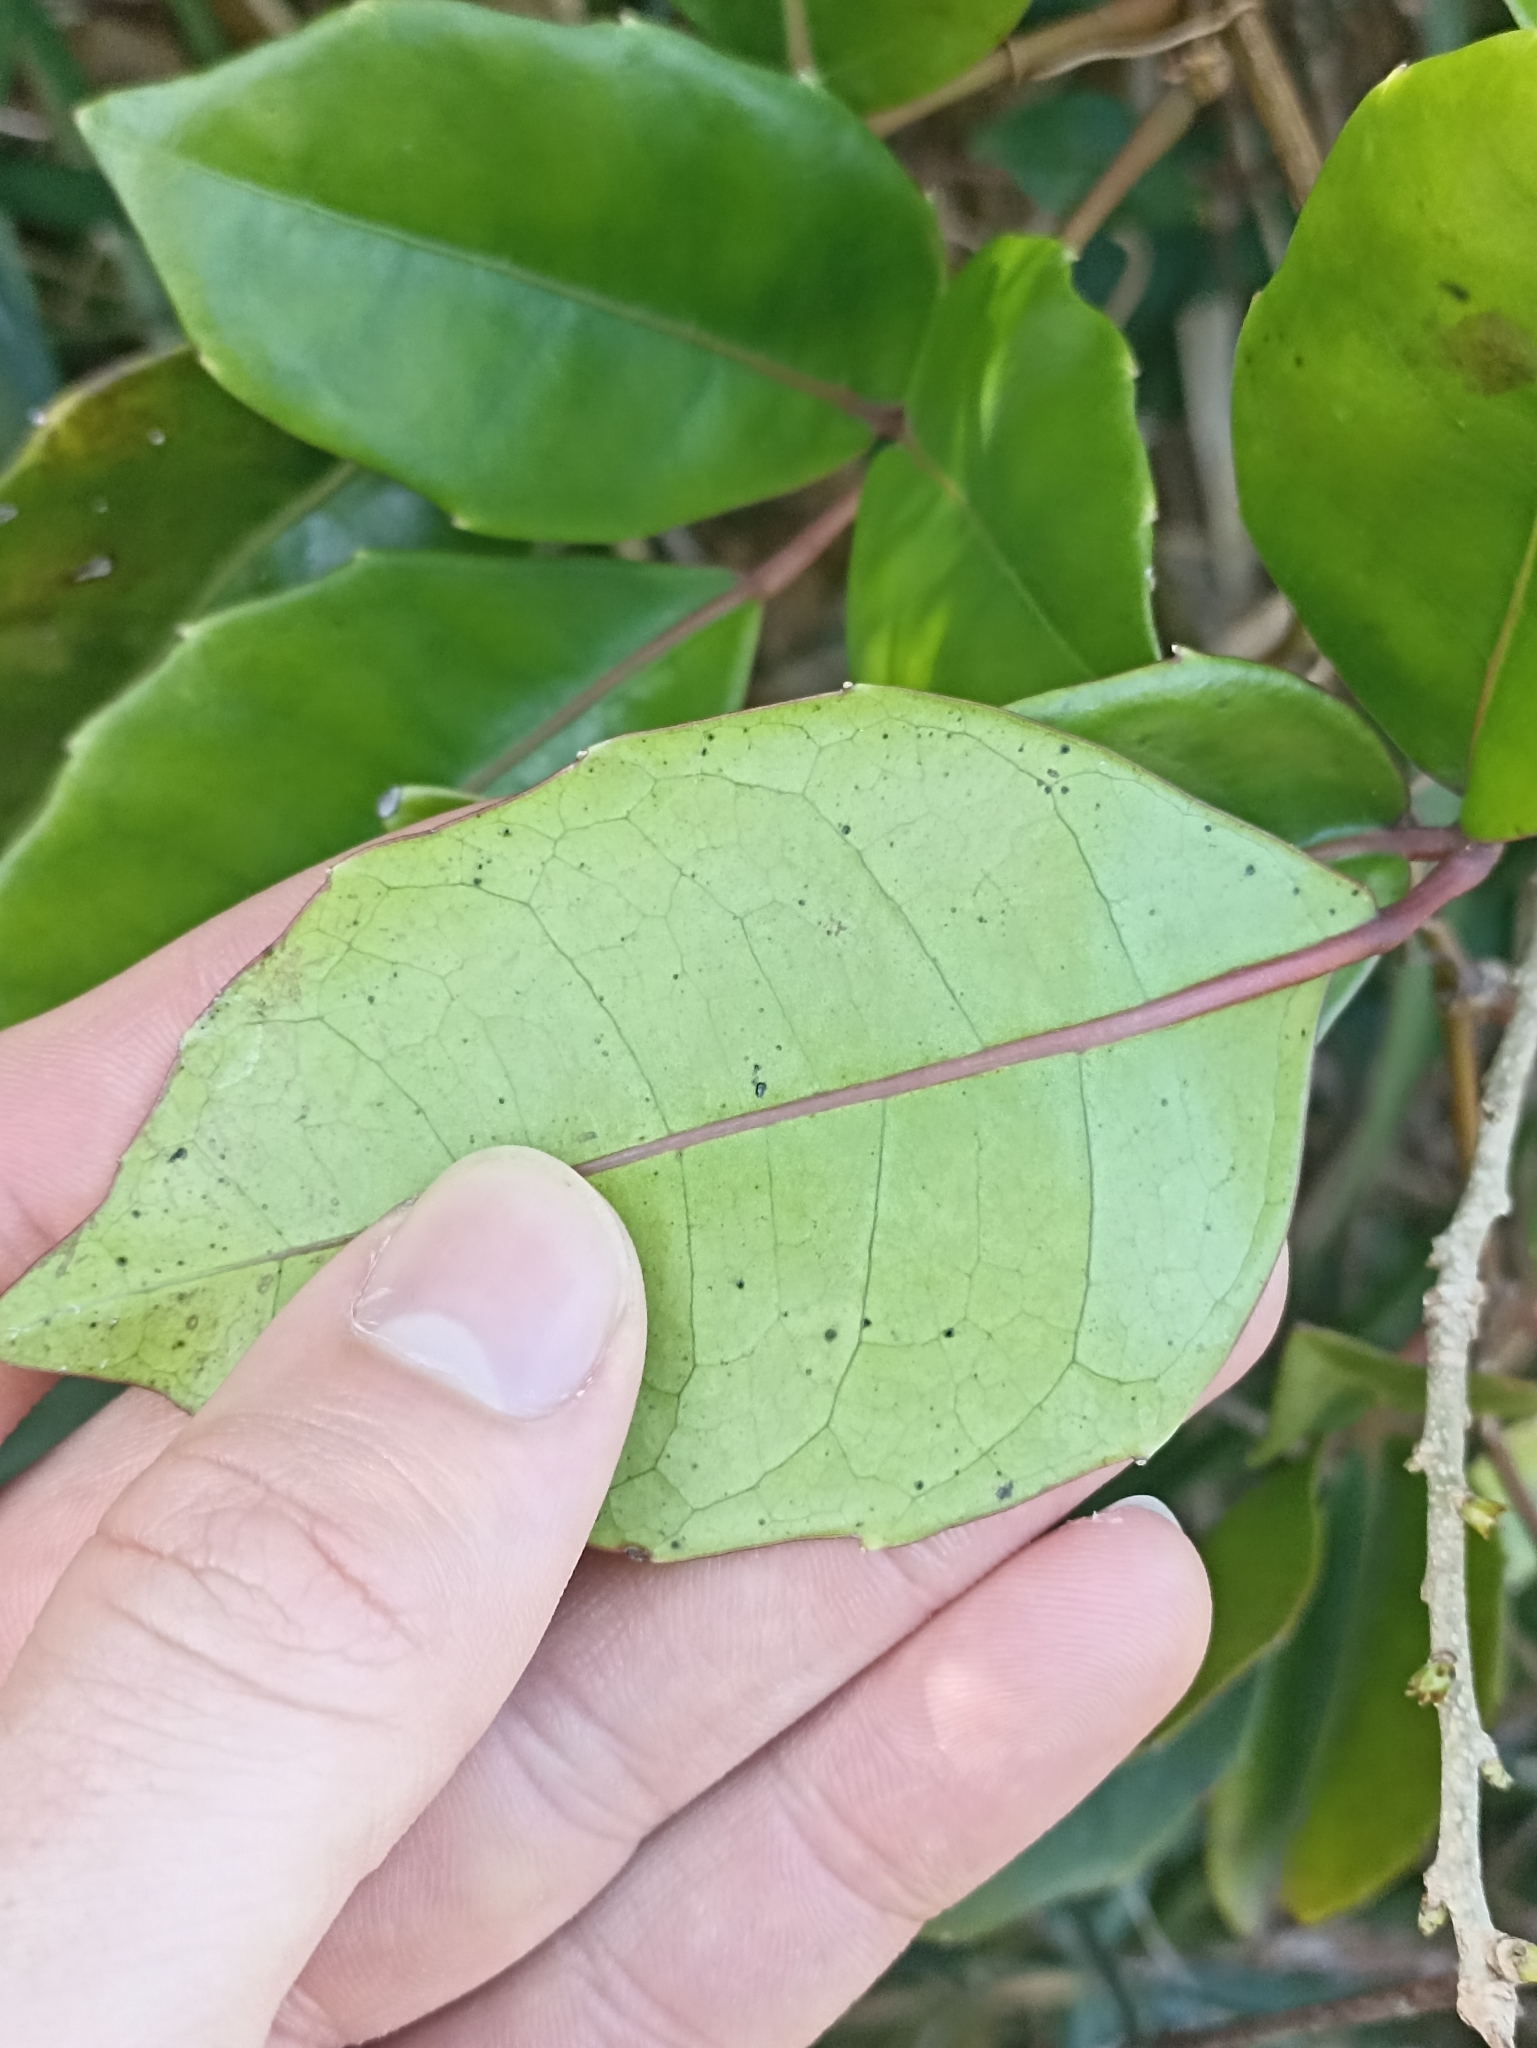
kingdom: Plantae
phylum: Tracheophyta
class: Magnoliopsida
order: Vitales
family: Vitaceae
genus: Tetrastigma
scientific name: Tetrastigma nitens
